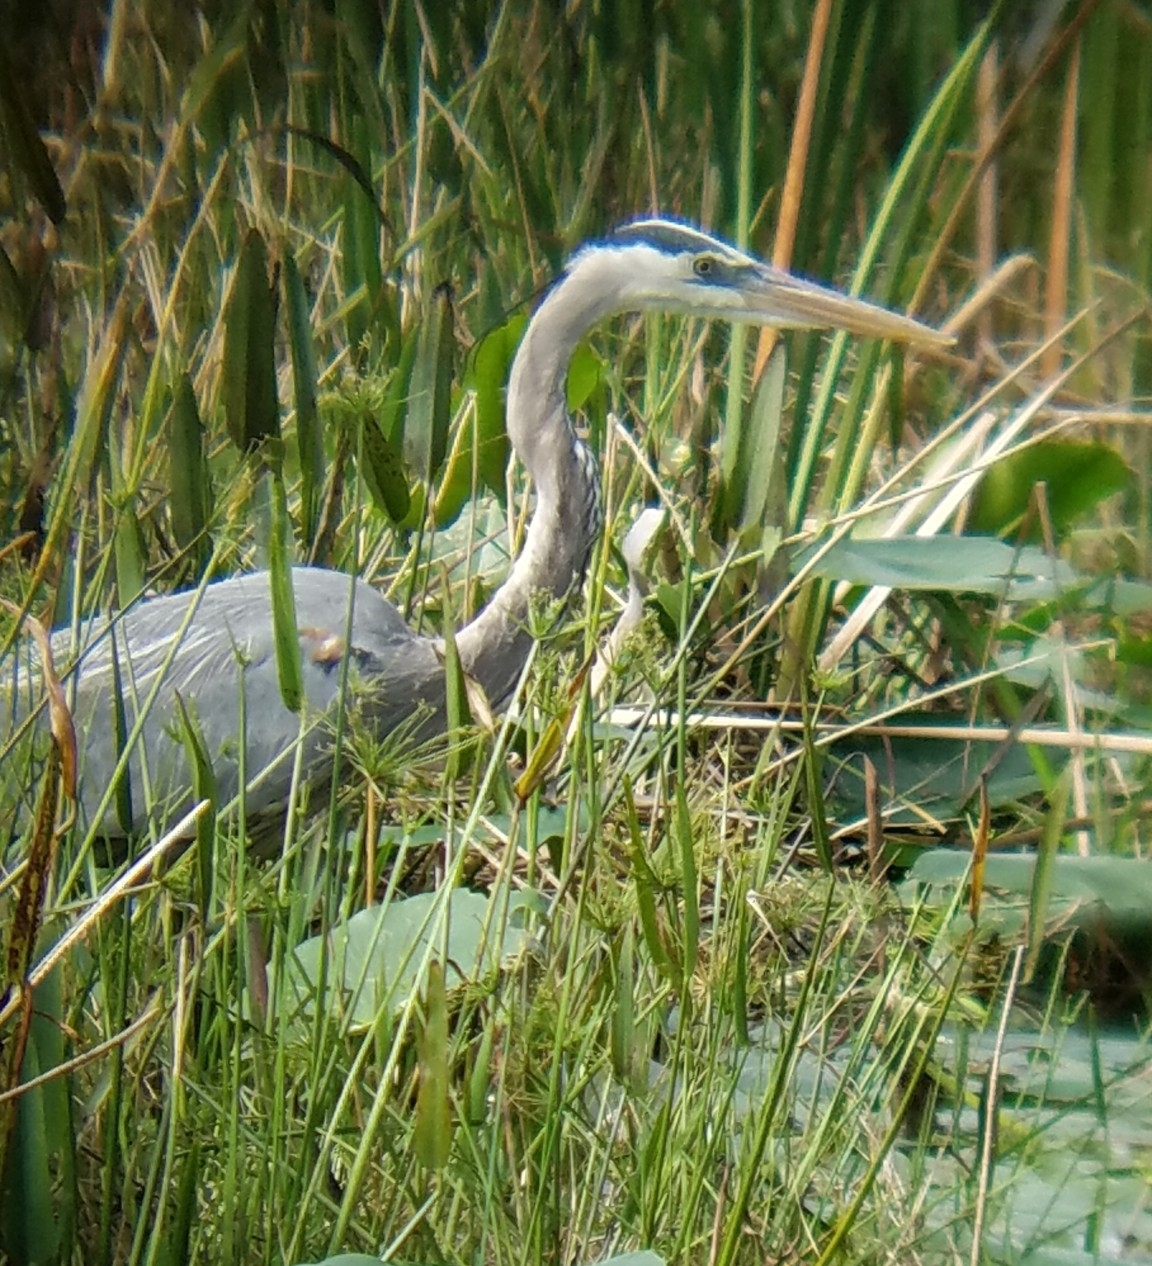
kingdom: Animalia
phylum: Chordata
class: Aves
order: Pelecaniformes
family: Ardeidae
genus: Ardea
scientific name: Ardea herodias
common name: Great blue heron
